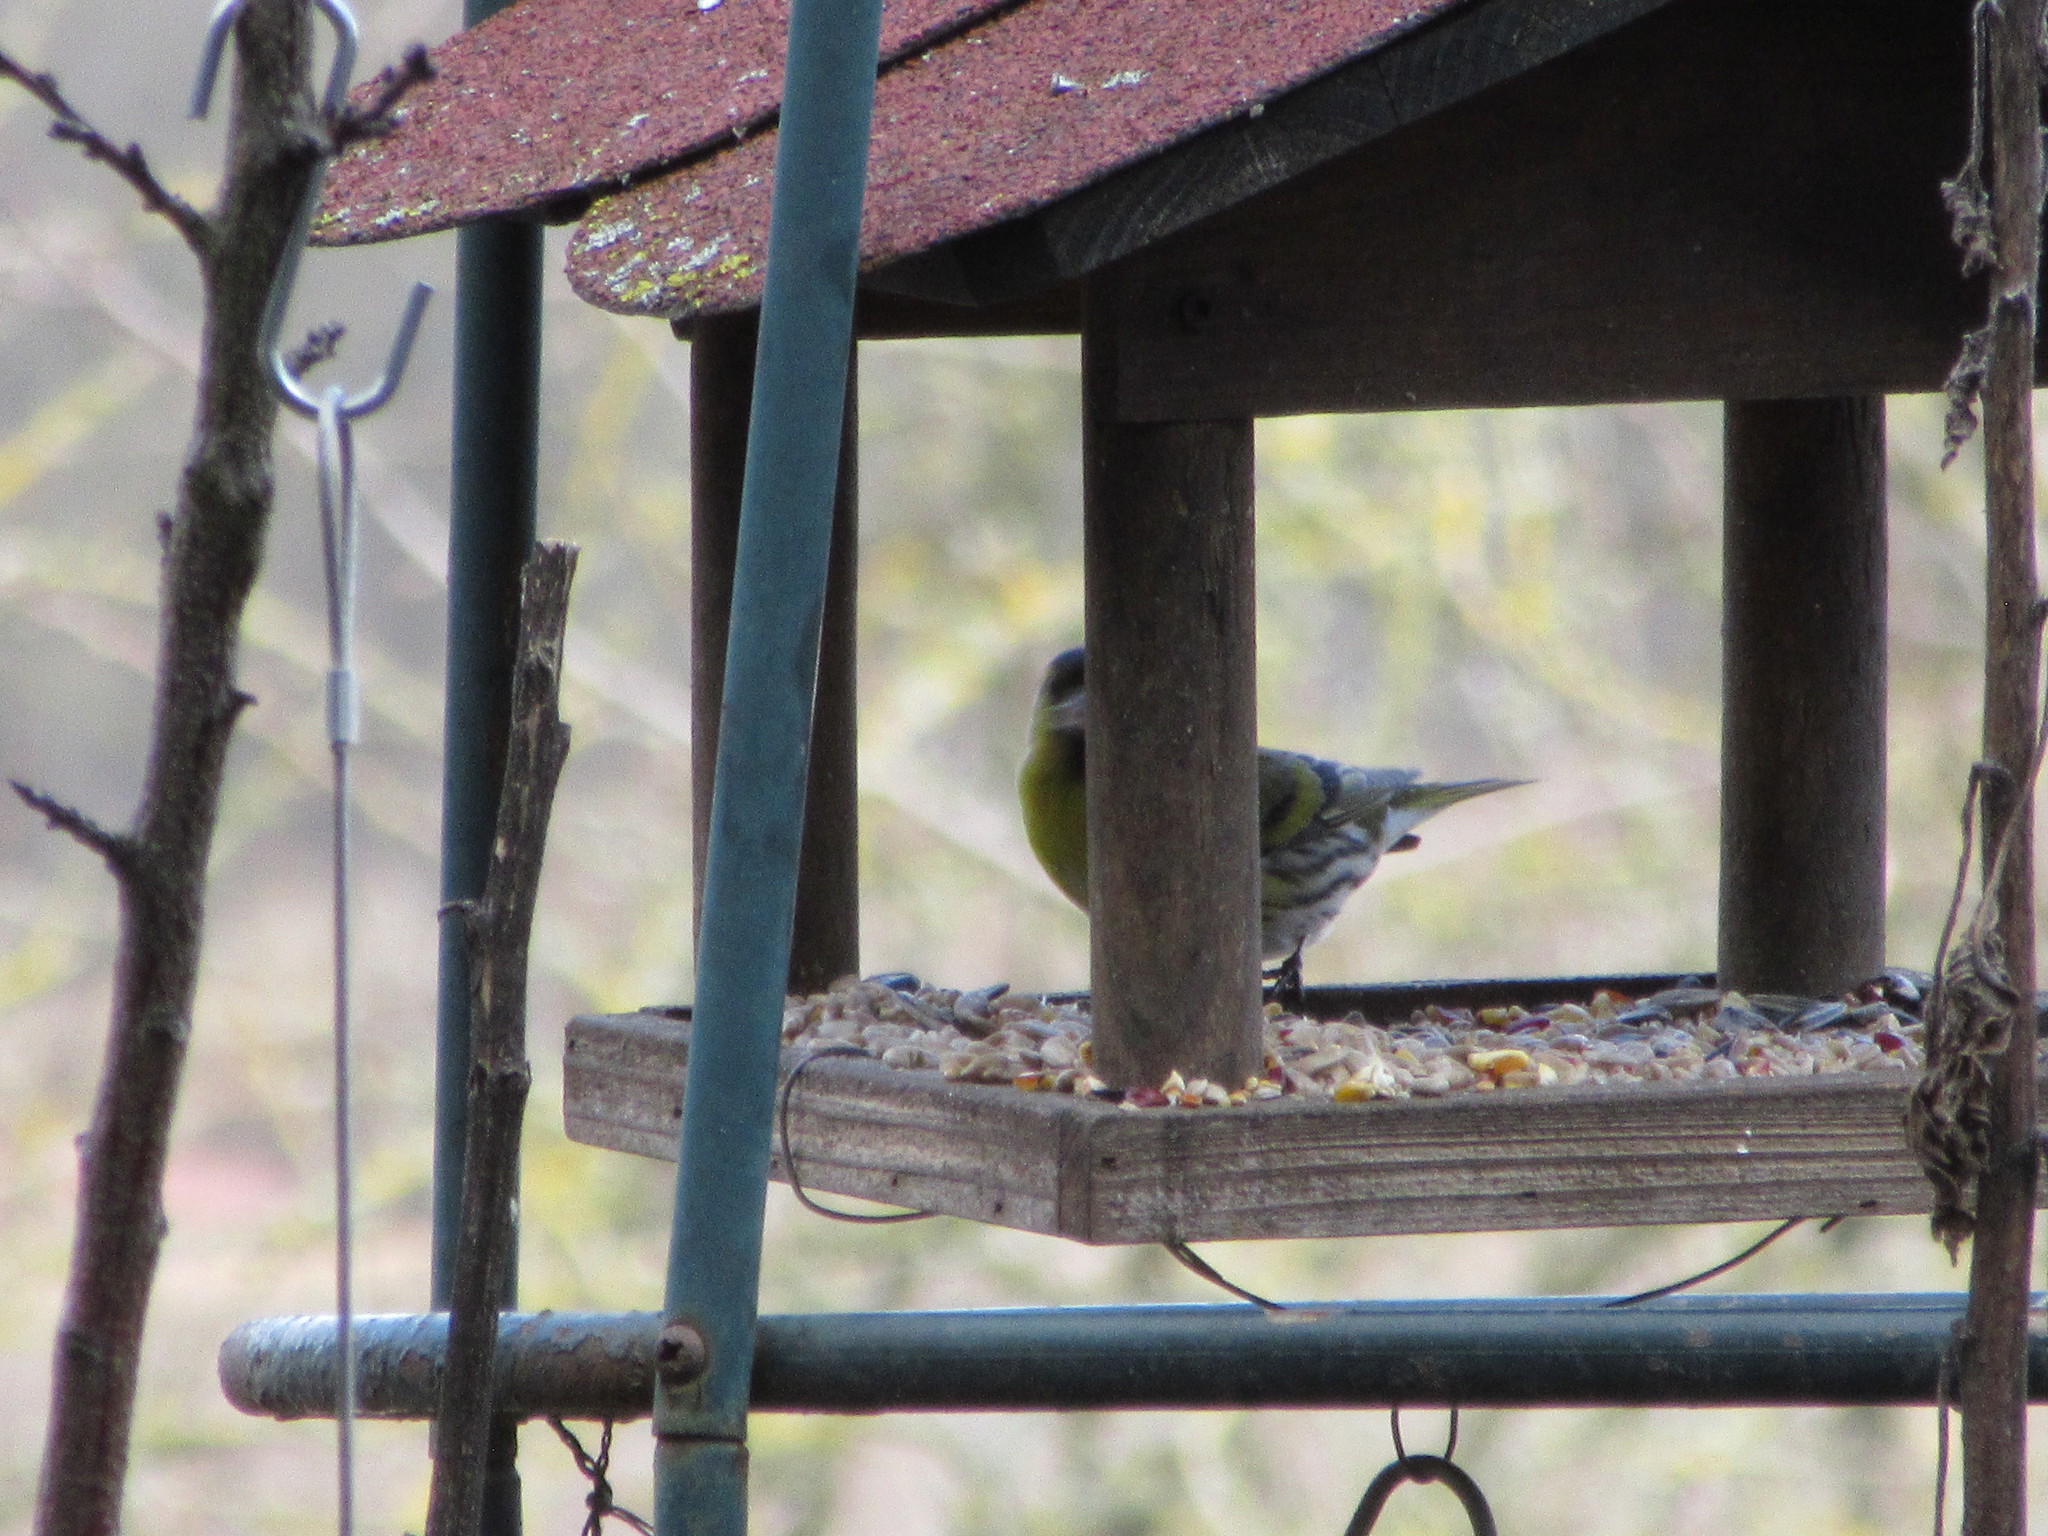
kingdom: Animalia
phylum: Chordata
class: Aves
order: Passeriformes
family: Fringillidae
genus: Spinus
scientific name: Spinus spinus
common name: Eurasian siskin
